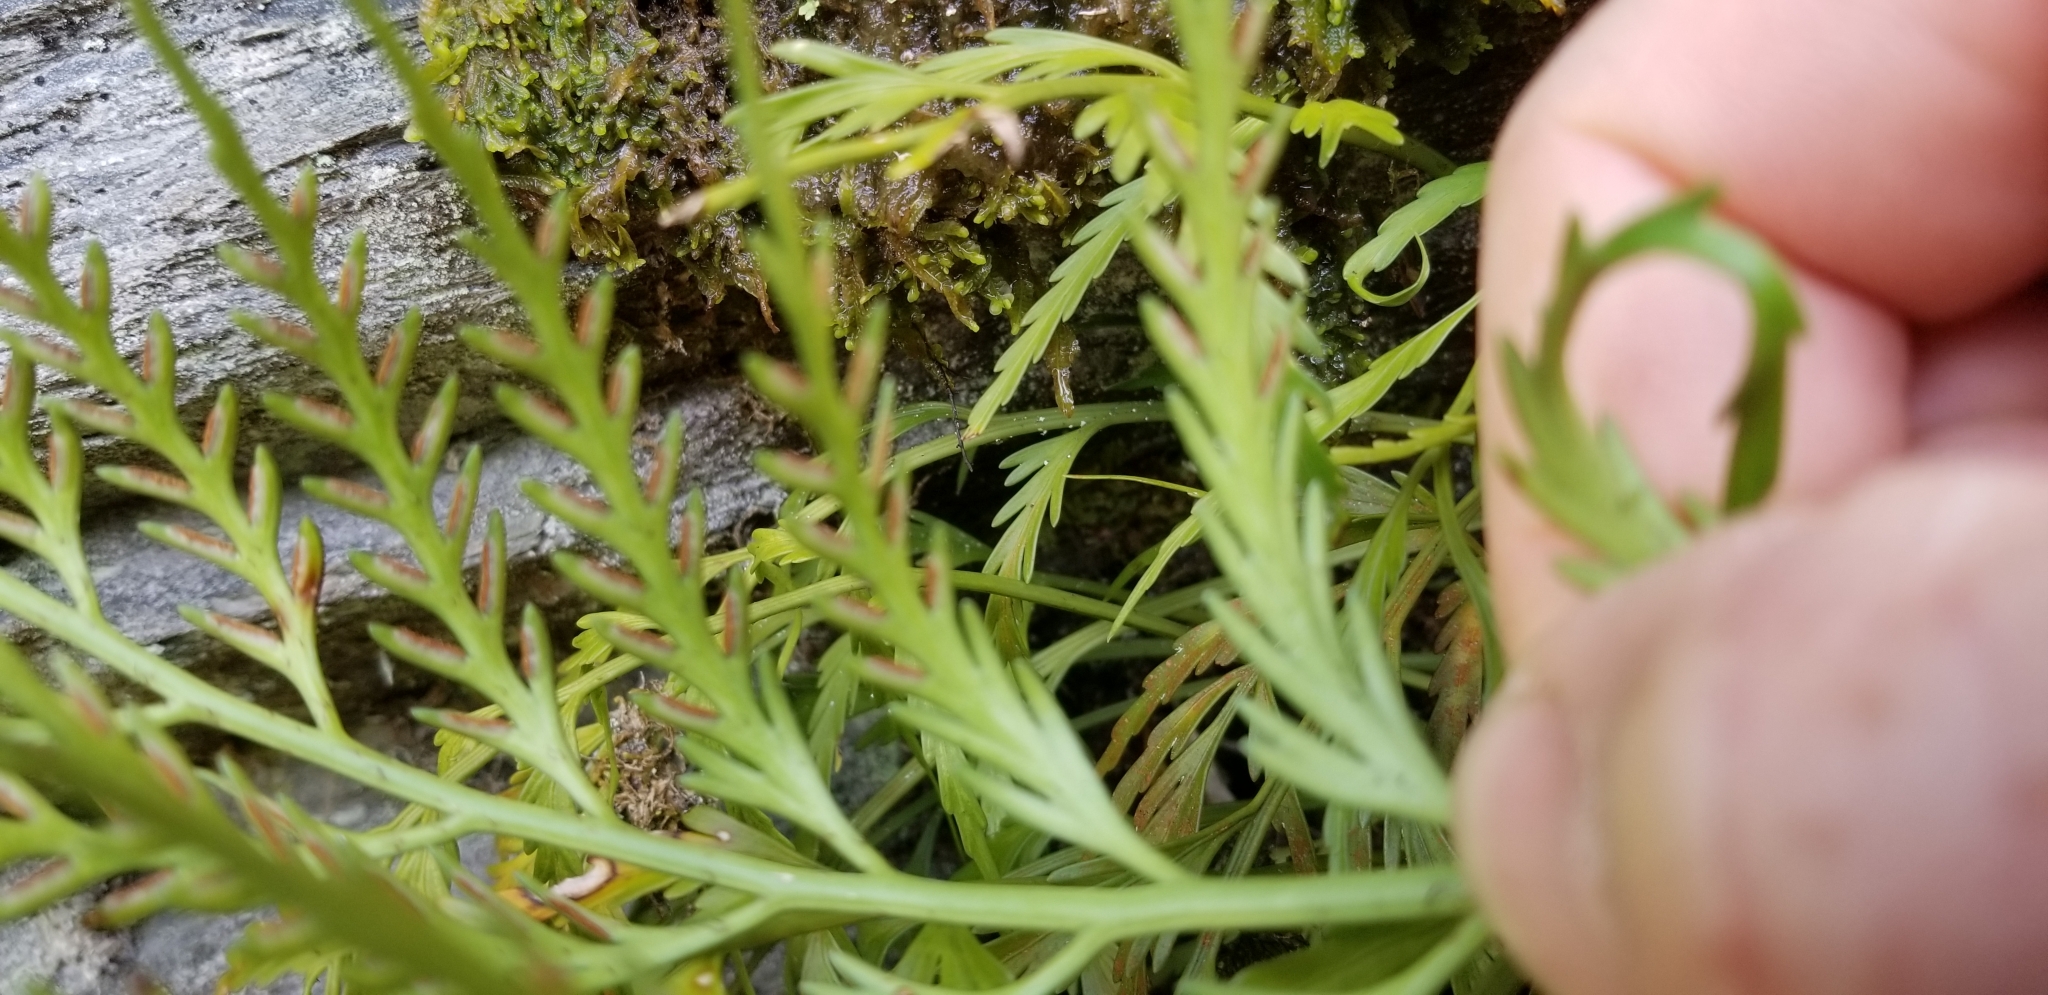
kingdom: Plantae
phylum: Tracheophyta
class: Polypodiopsida
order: Polypodiales
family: Aspleniaceae
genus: Asplenium
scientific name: Asplenium flaccidum
